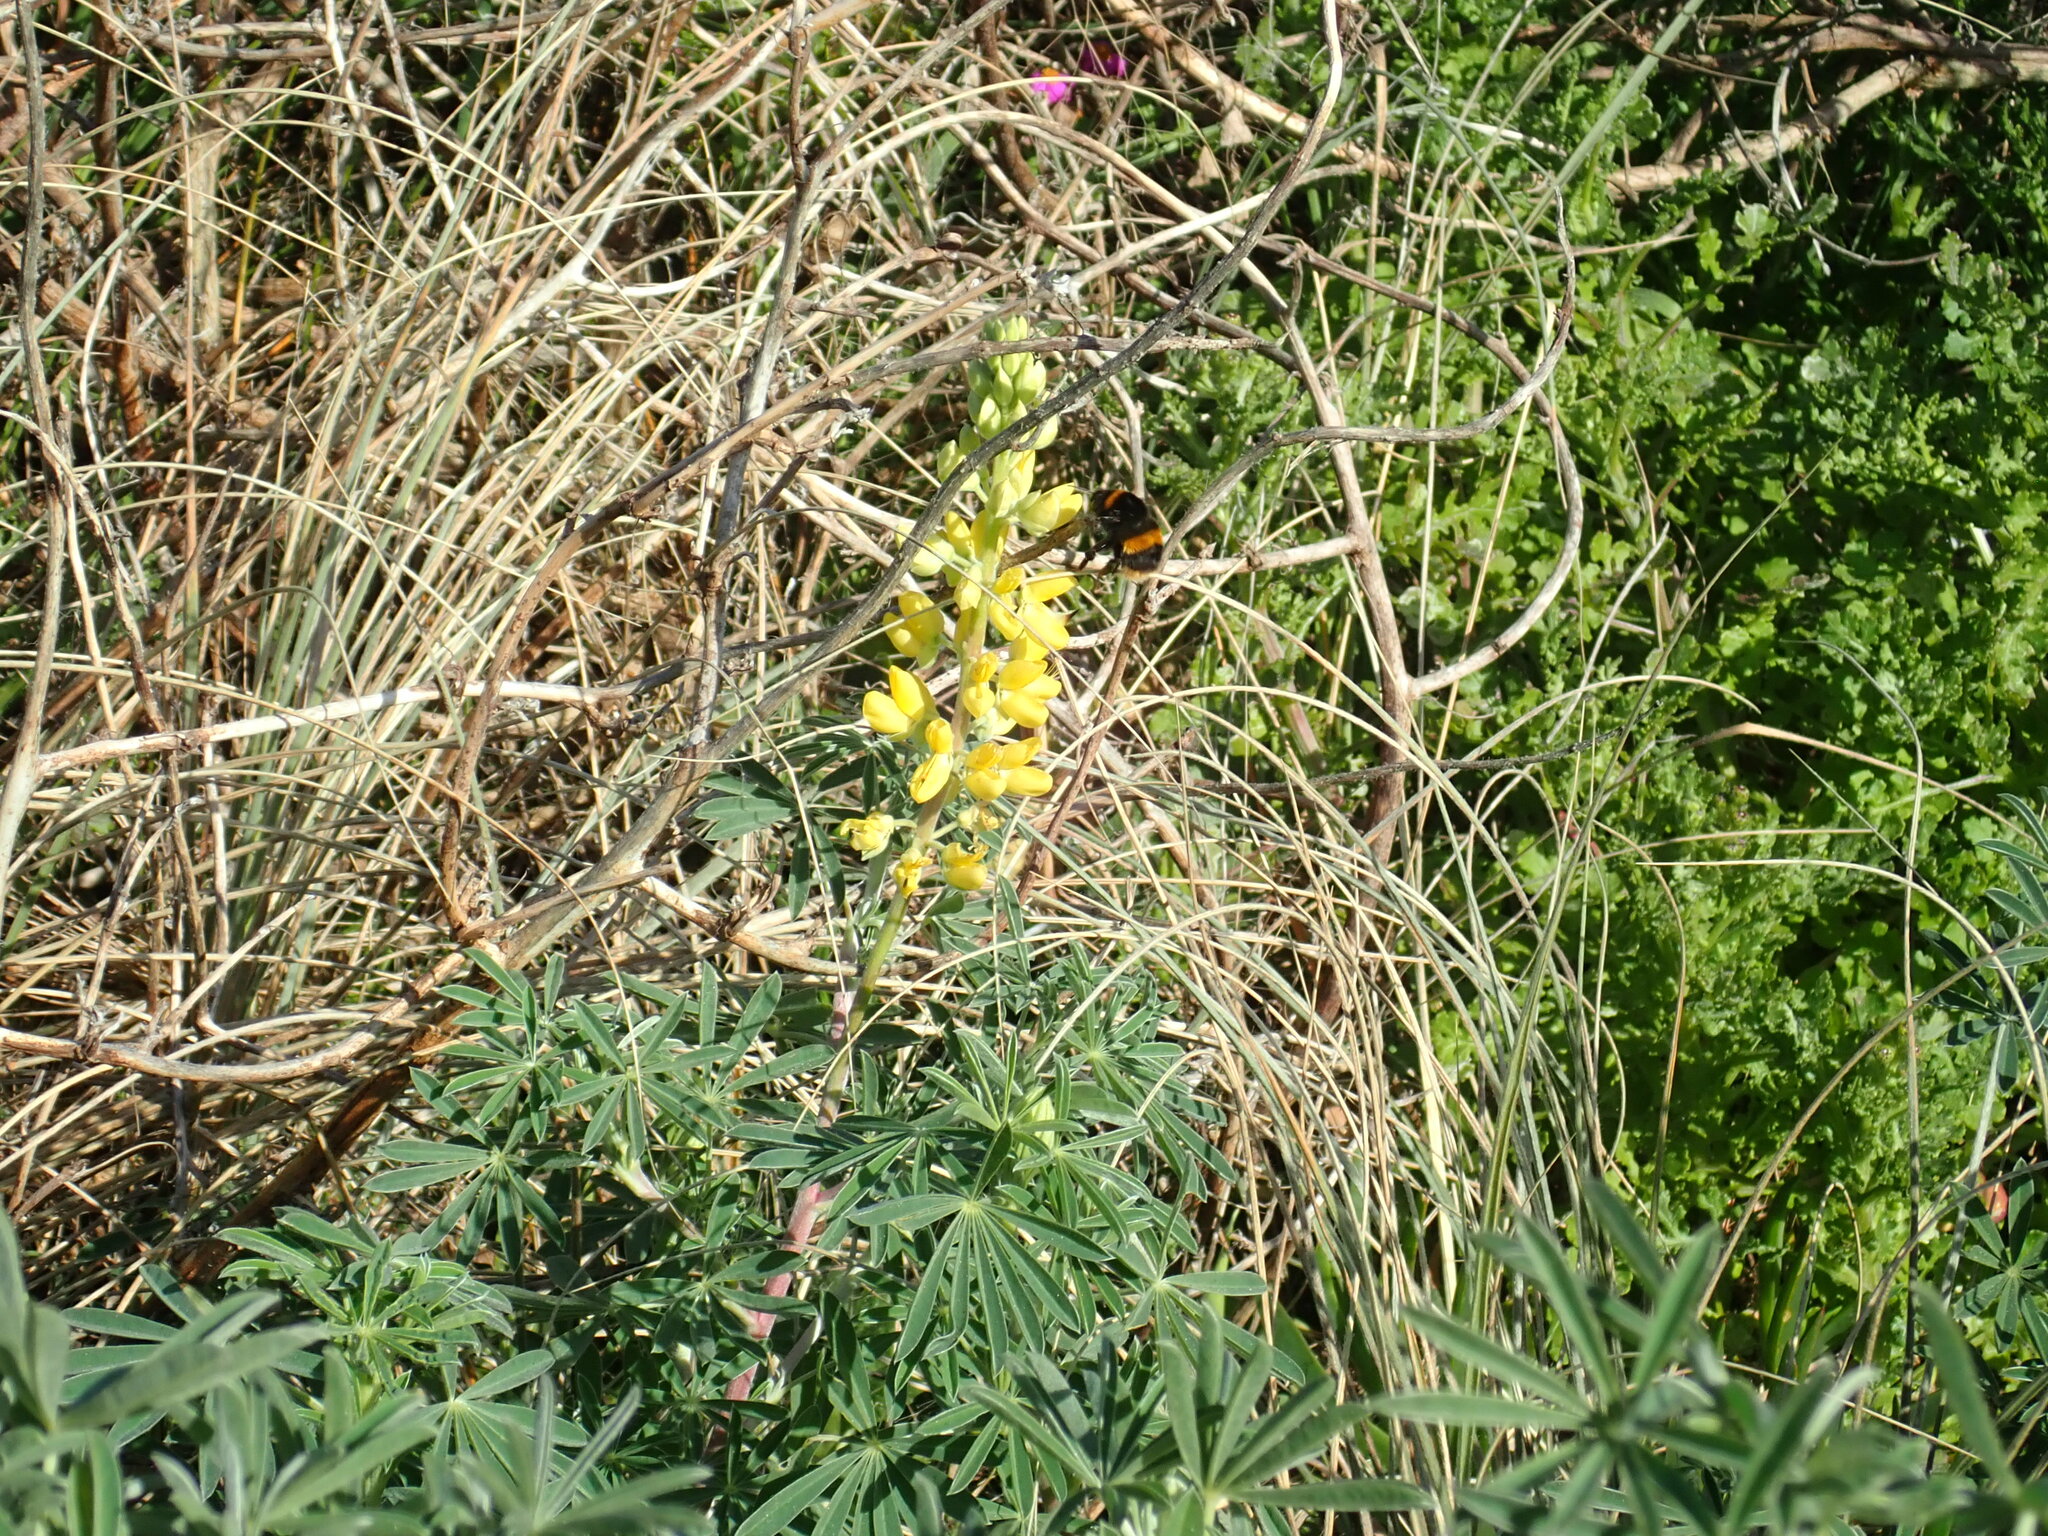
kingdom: Plantae
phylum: Tracheophyta
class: Magnoliopsida
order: Fabales
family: Fabaceae
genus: Lupinus
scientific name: Lupinus arboreus
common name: Yellow bush lupine
